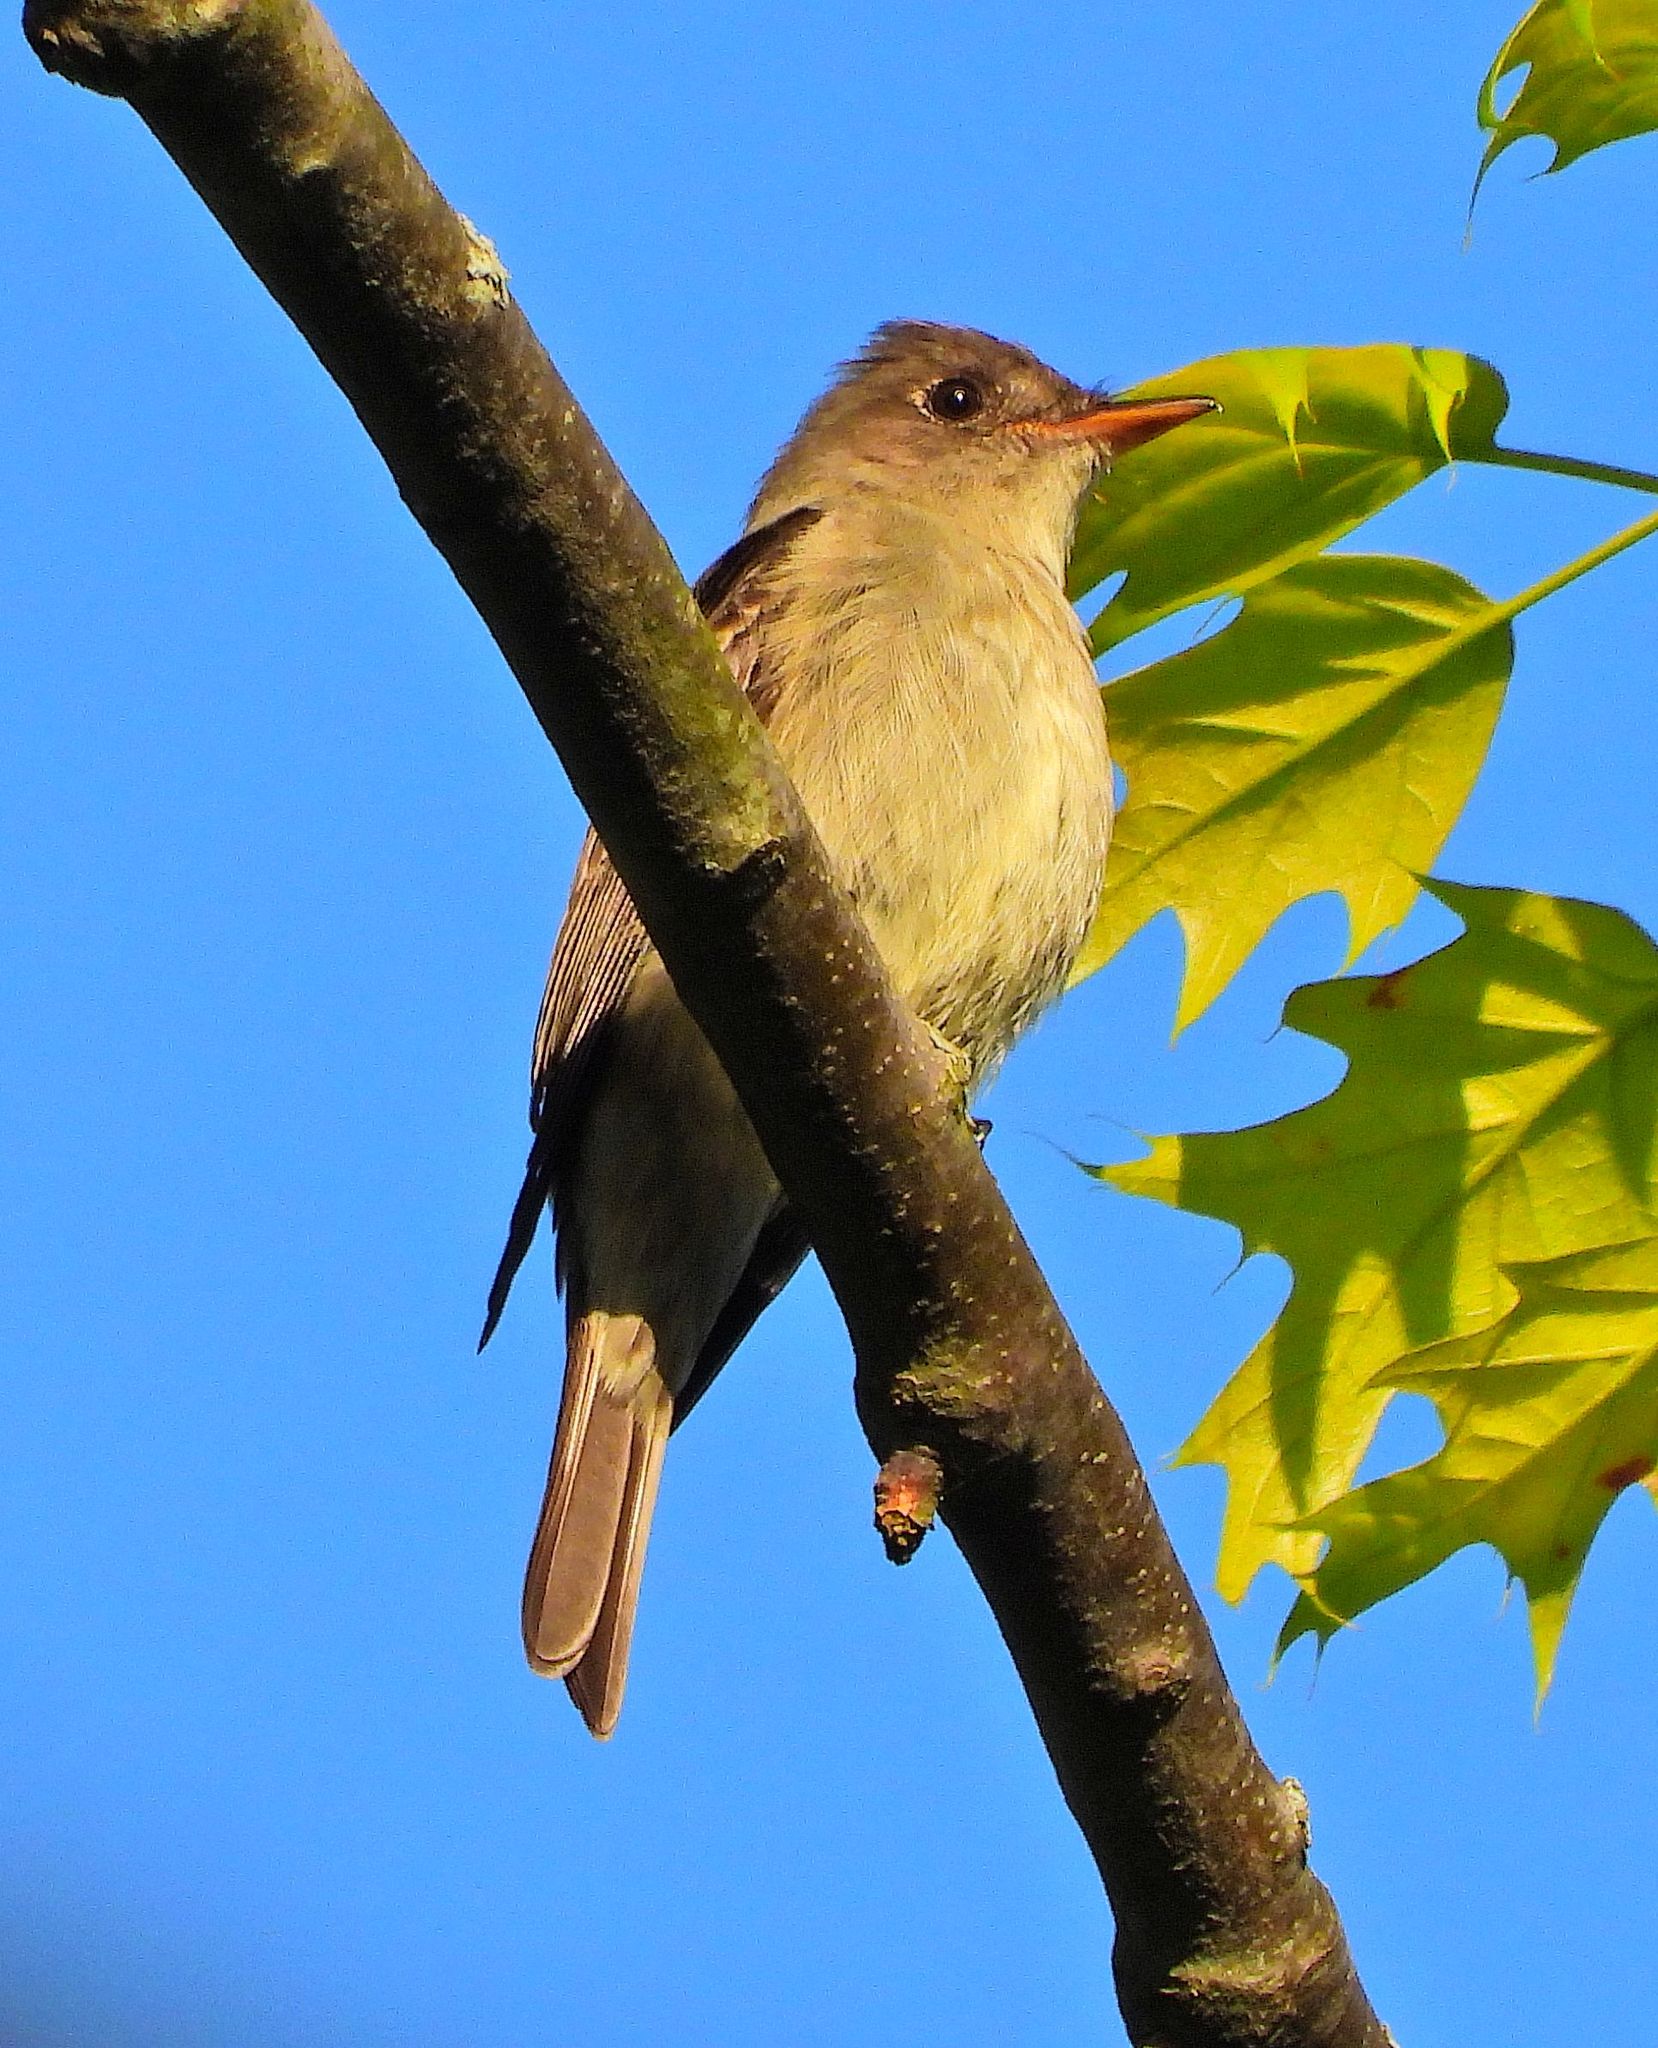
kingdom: Animalia
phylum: Chordata
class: Aves
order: Passeriformes
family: Tyrannidae
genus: Contopus
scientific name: Contopus virens
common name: Eastern wood-pewee
